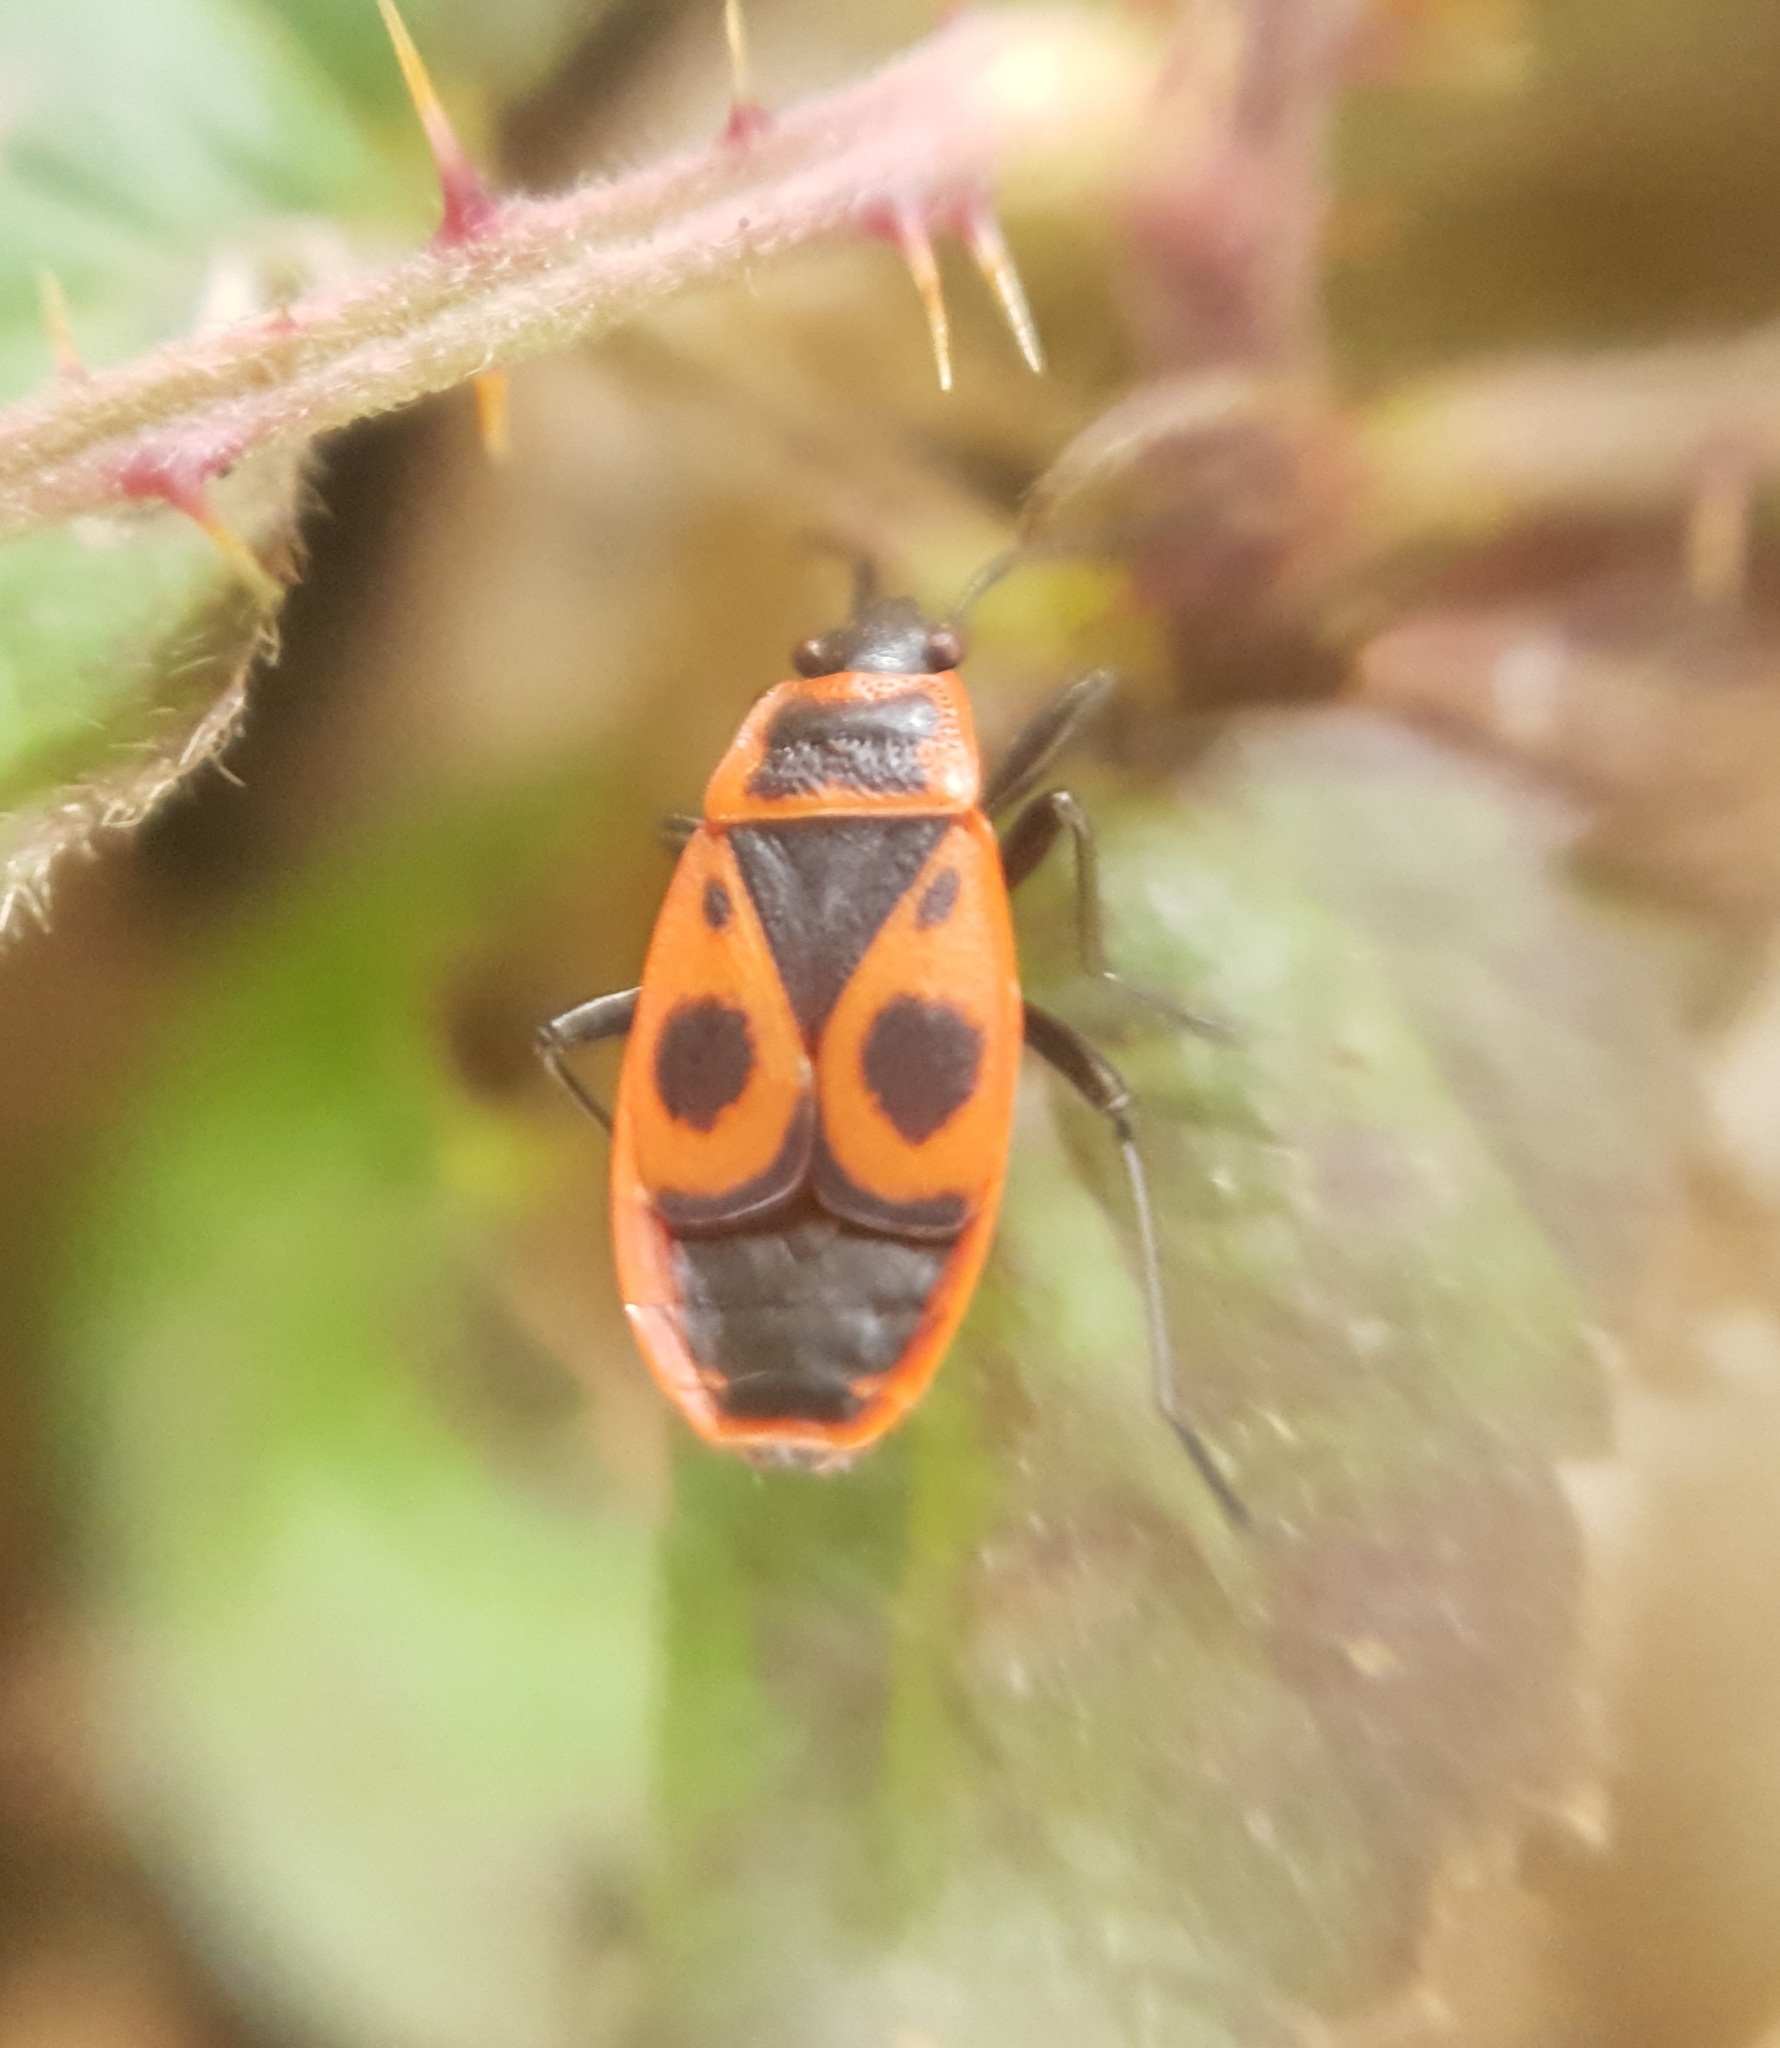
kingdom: Animalia
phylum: Arthropoda
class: Insecta
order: Hemiptera
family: Pyrrhocoridae
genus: Pyrrhocoris
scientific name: Pyrrhocoris apterus
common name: Firebug
